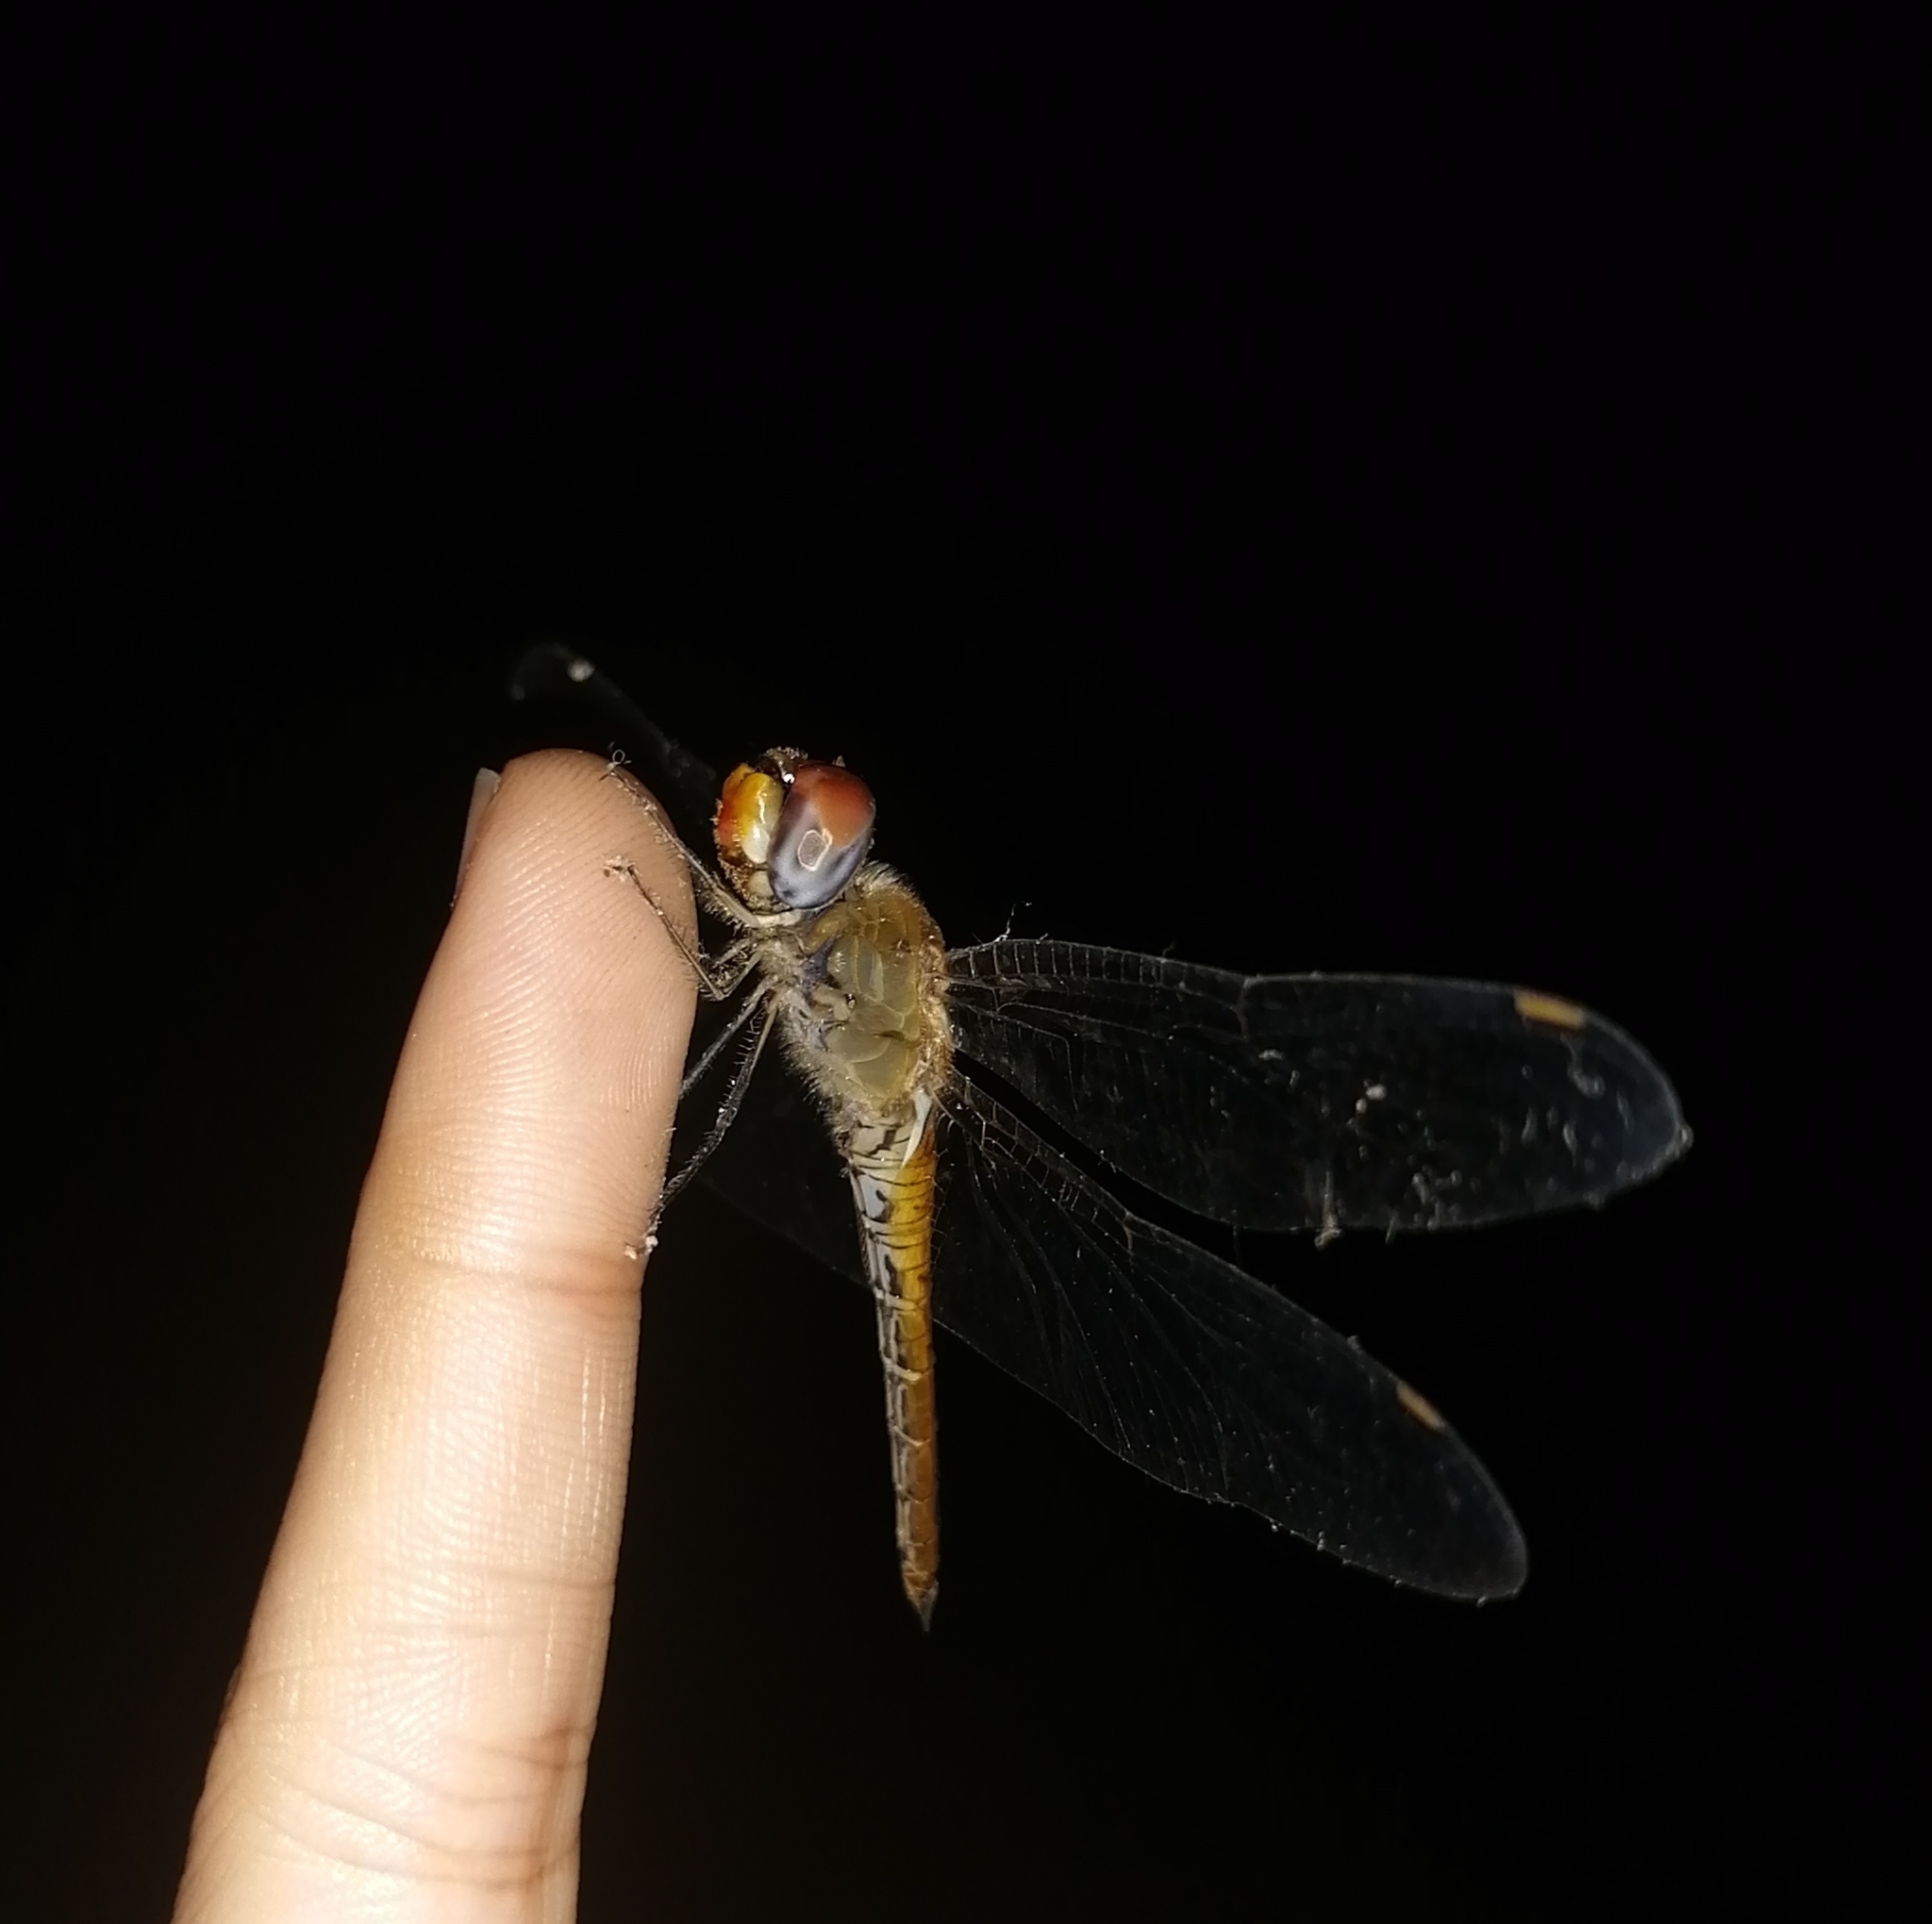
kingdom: Animalia
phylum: Arthropoda
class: Insecta
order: Odonata
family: Libellulidae
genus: Pantala
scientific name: Pantala flavescens
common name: Wandering glider
